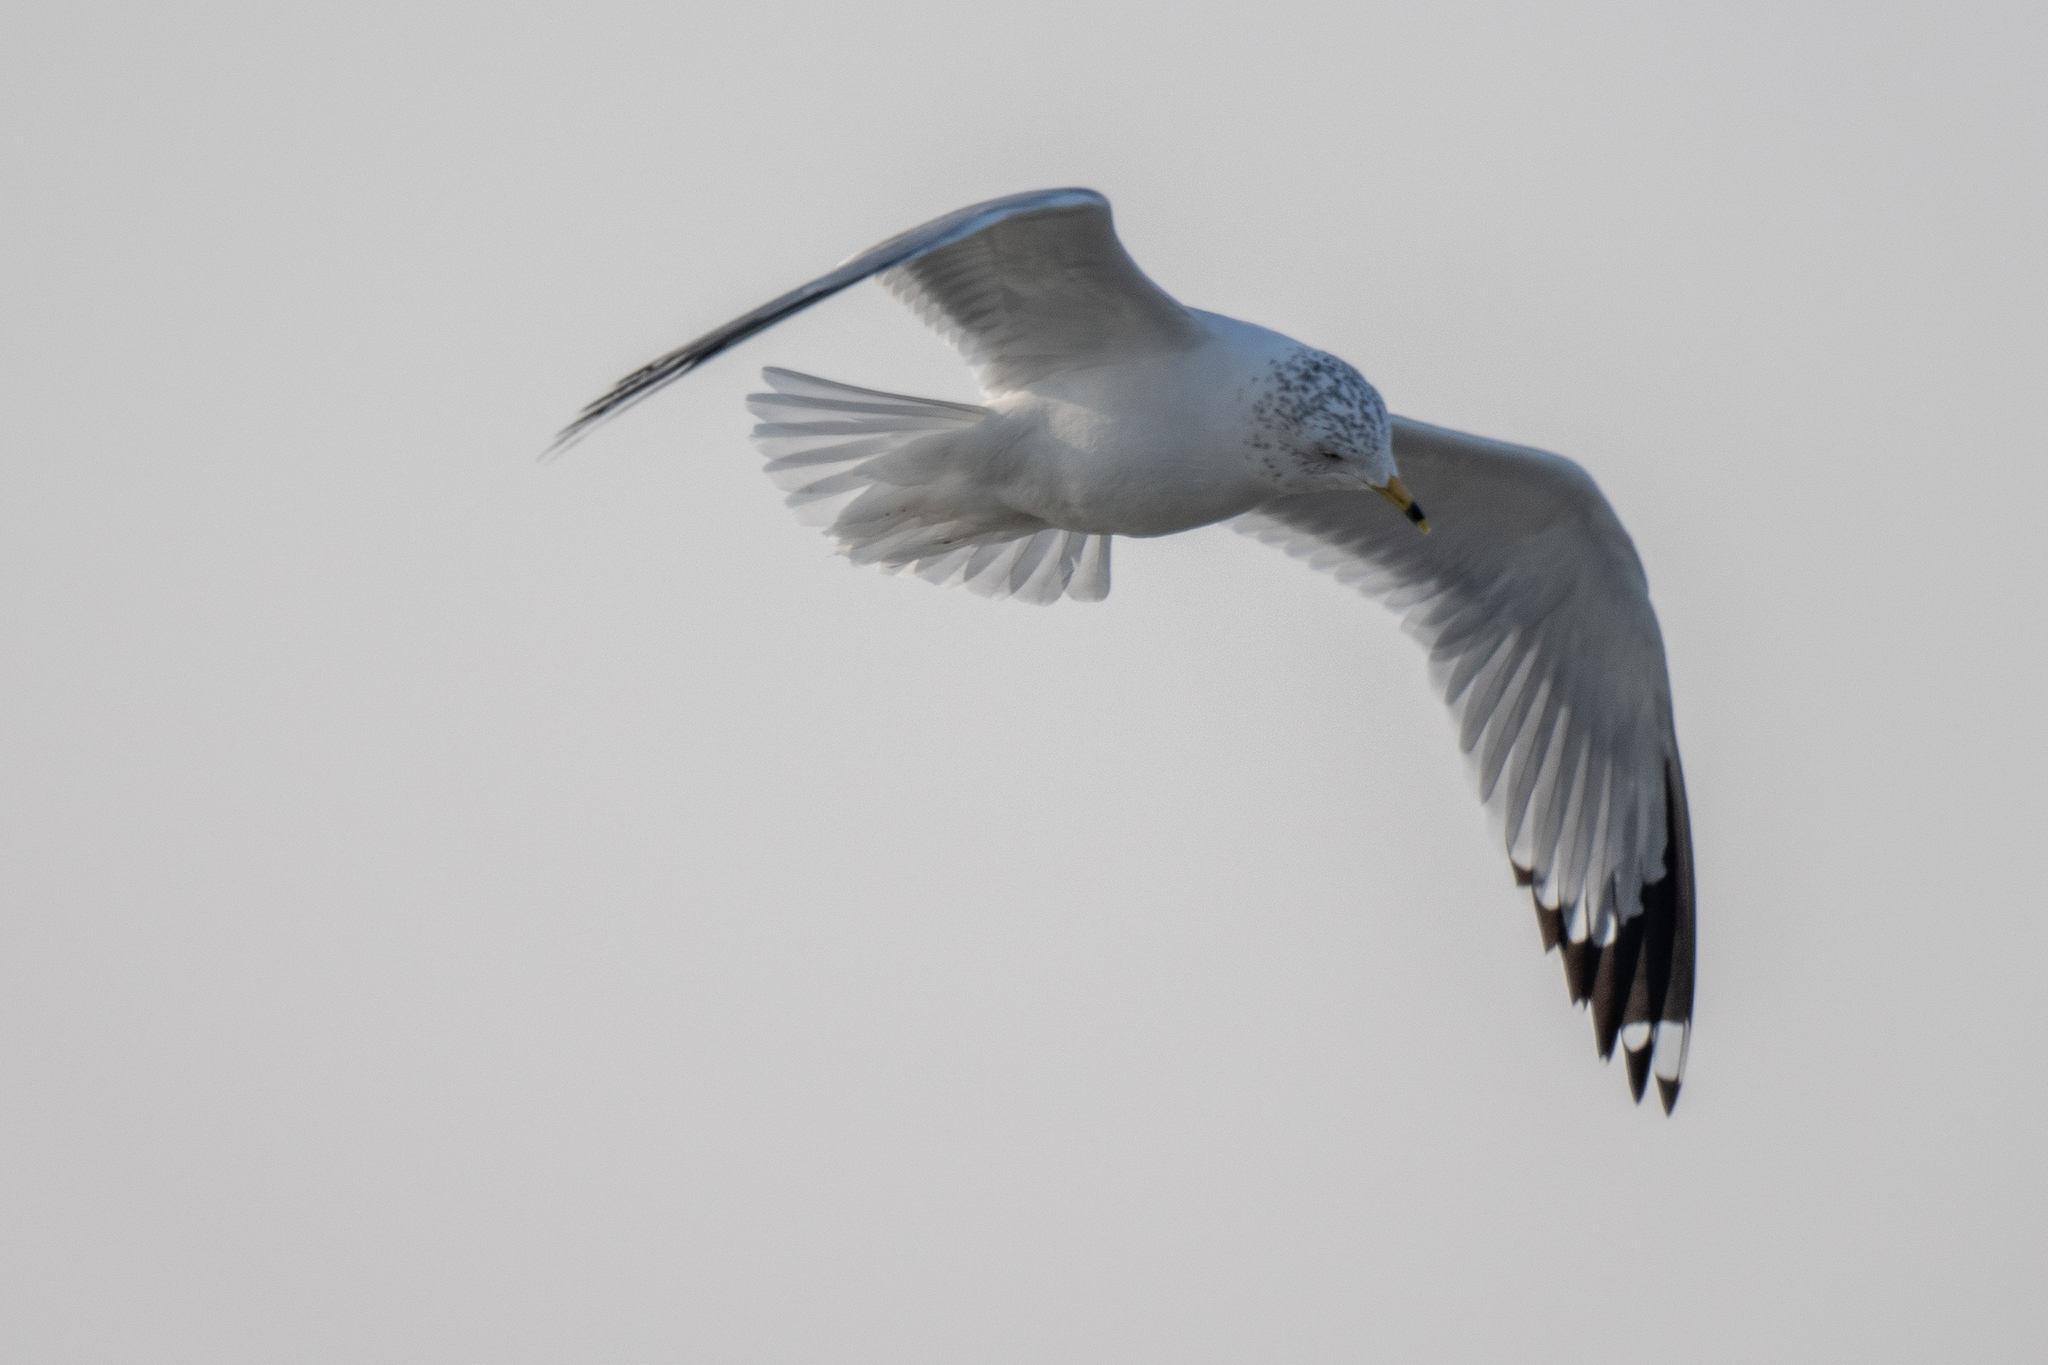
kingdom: Animalia
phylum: Chordata
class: Aves
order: Charadriiformes
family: Laridae
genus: Larus
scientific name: Larus delawarensis
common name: Ring-billed gull
